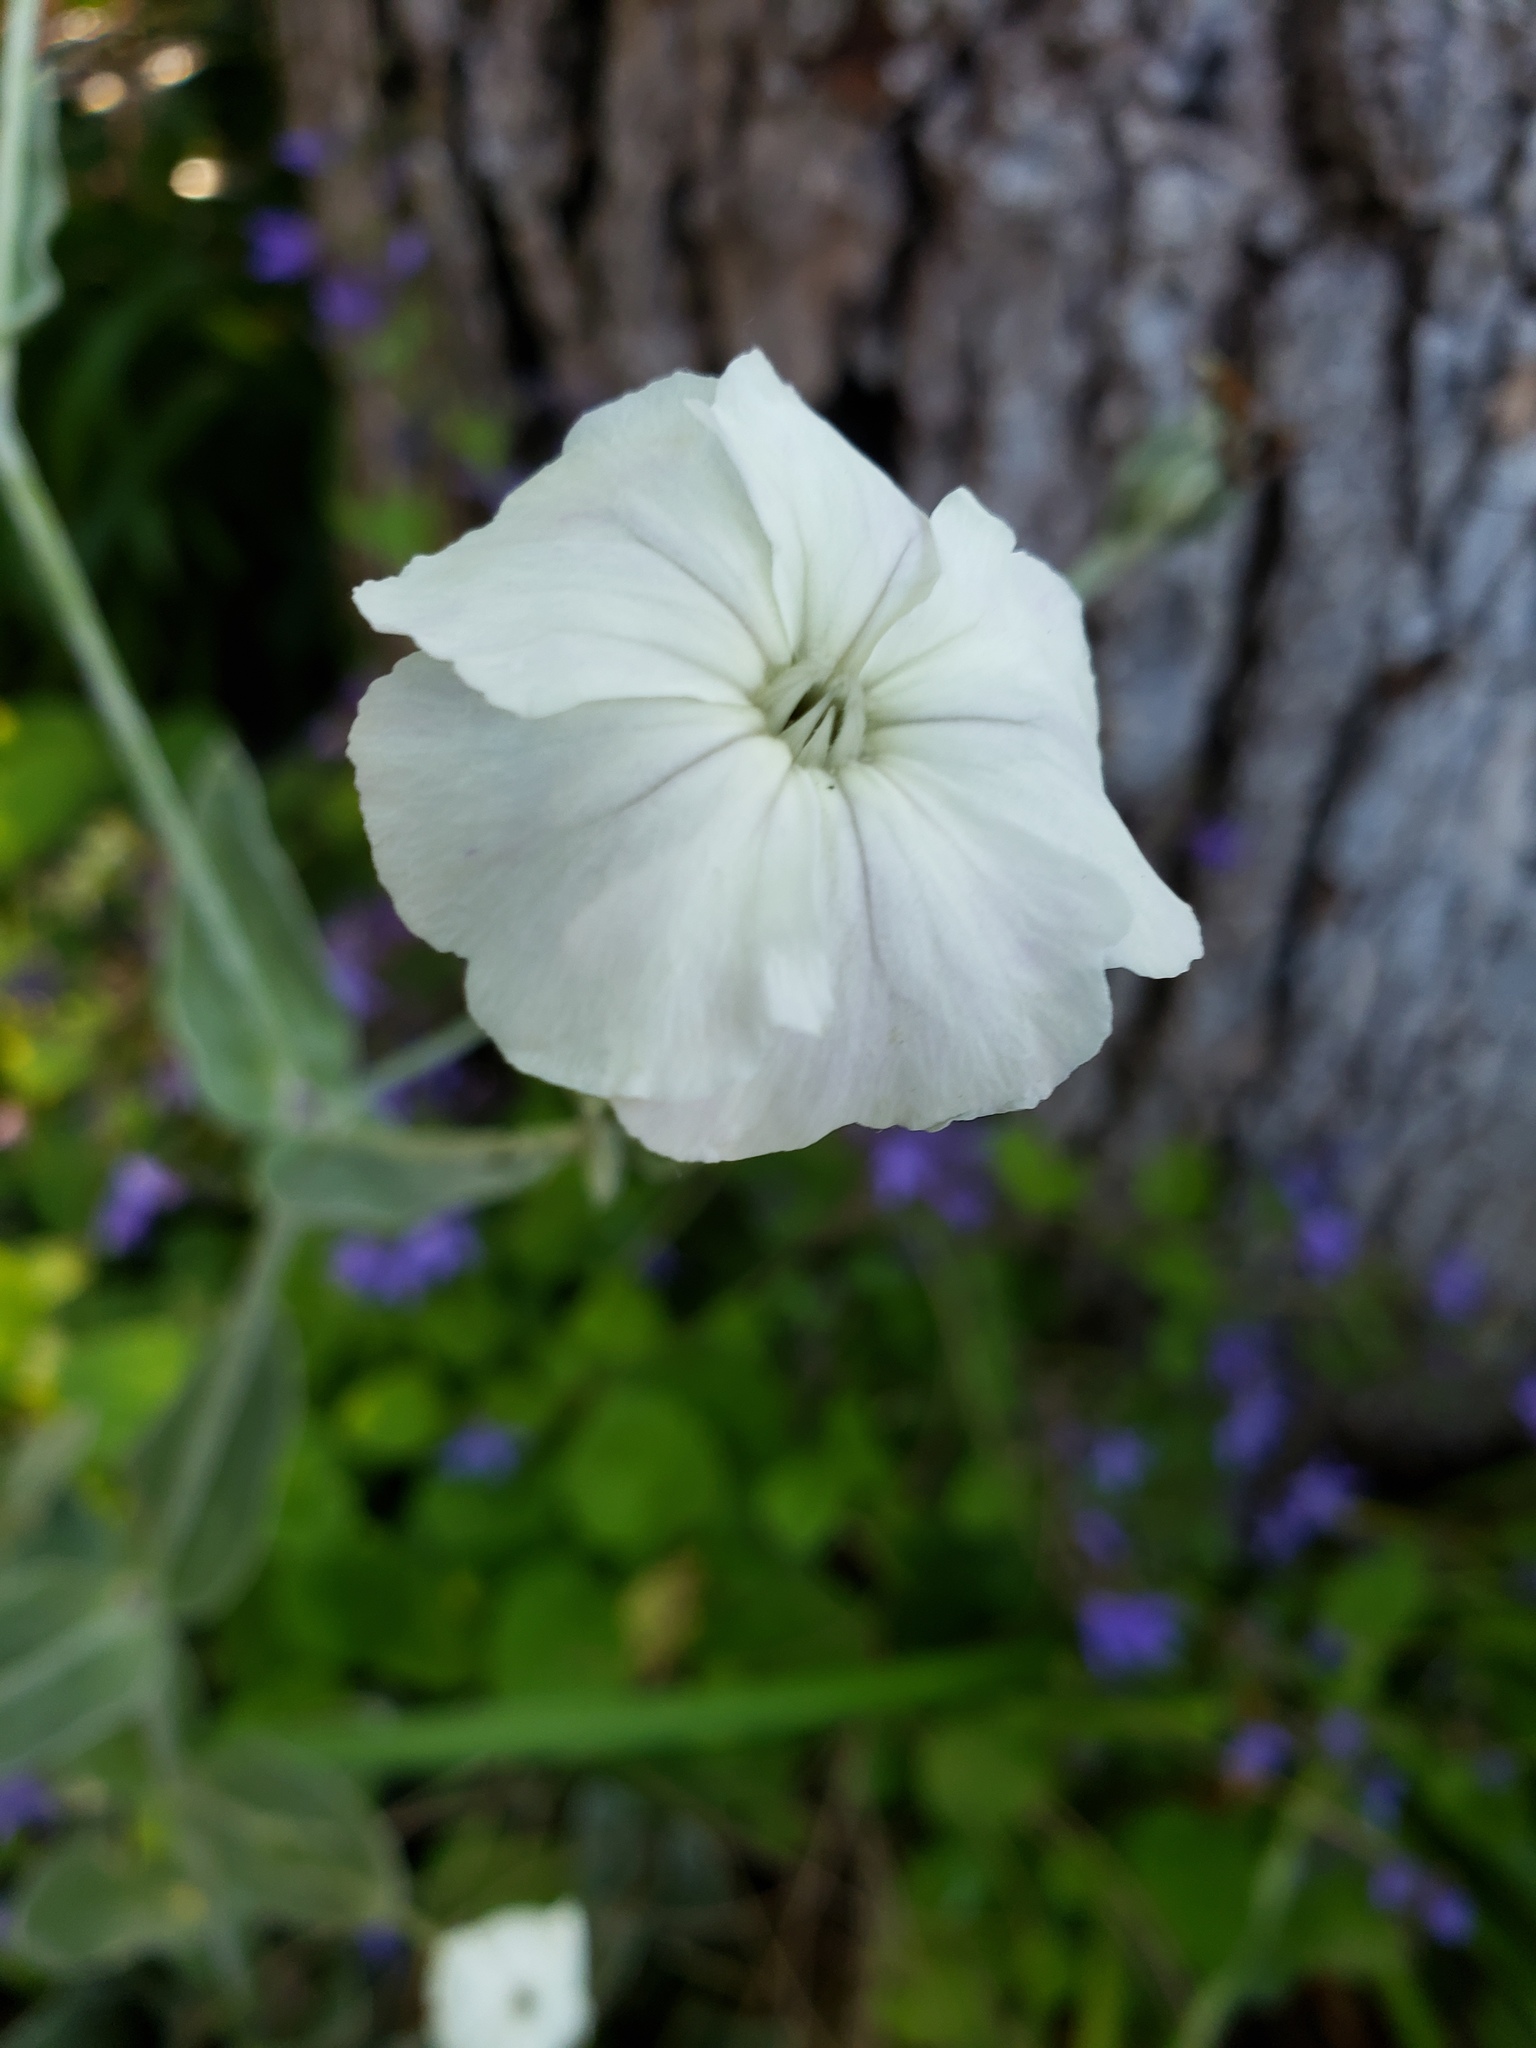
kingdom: Plantae
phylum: Tracheophyta
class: Magnoliopsida
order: Caryophyllales
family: Caryophyllaceae
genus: Silene
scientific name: Silene coronaria
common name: Rose campion
